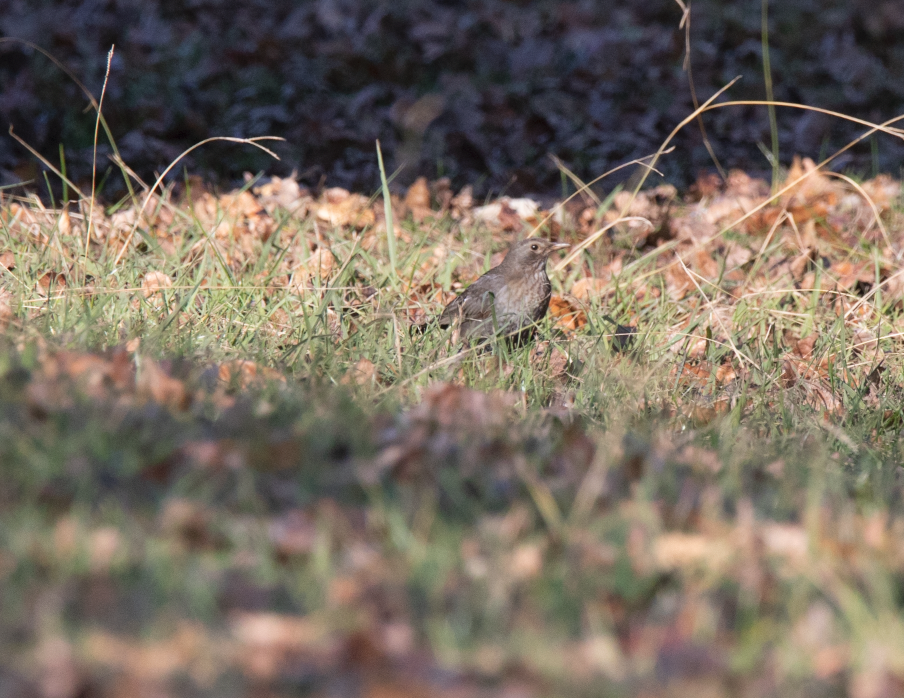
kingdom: Animalia
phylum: Chordata
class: Aves
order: Passeriformes
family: Turdidae
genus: Turdus
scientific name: Turdus merula
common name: Common blackbird
